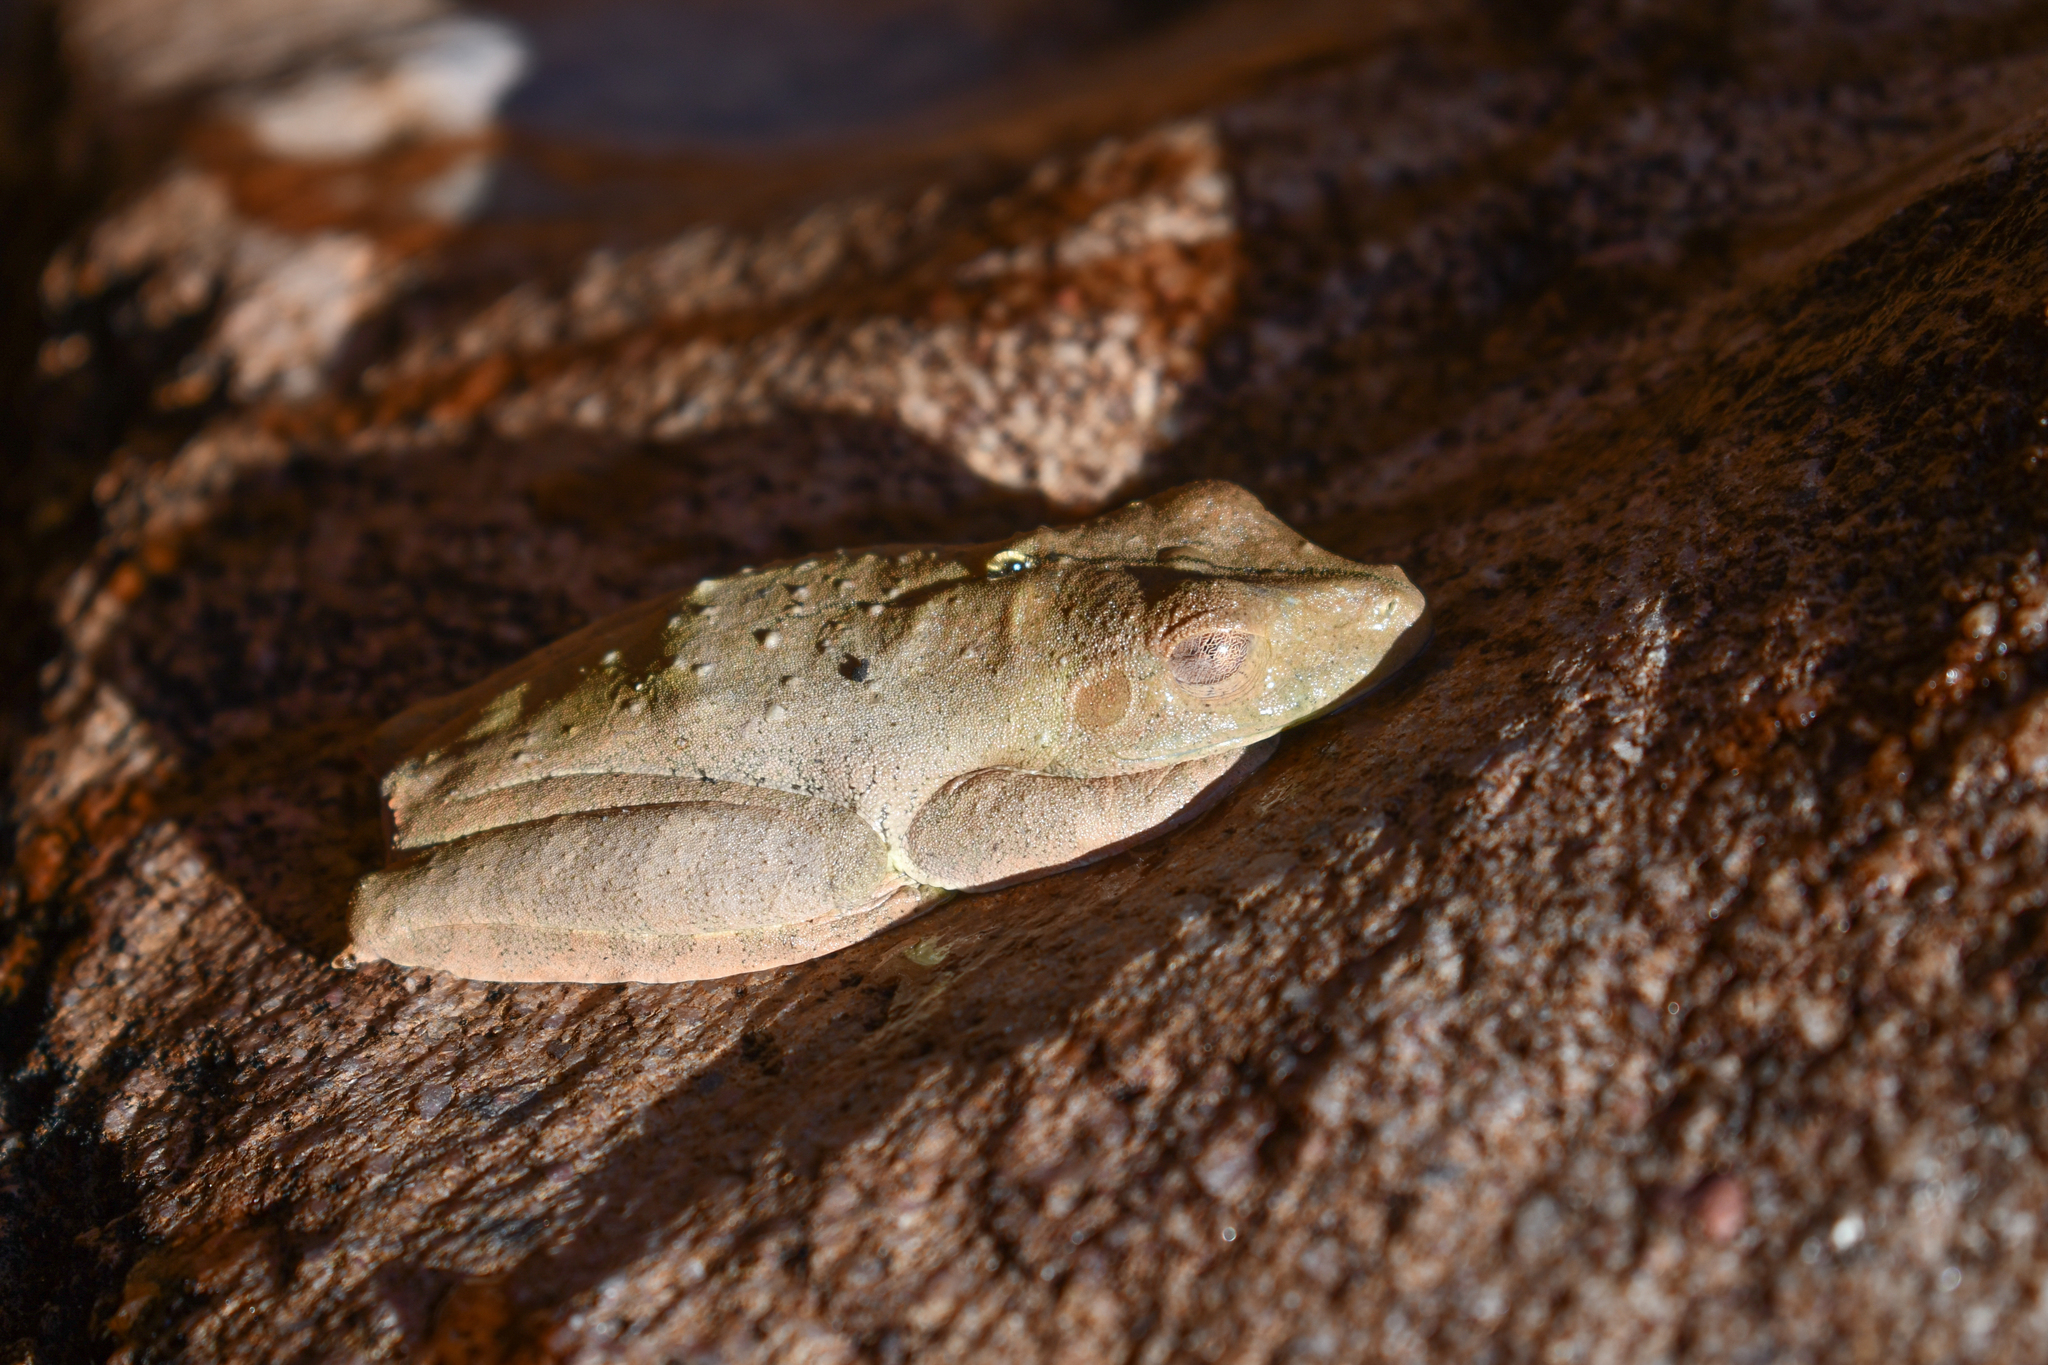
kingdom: Animalia
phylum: Chordata
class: Amphibia
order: Anura
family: Hylidae
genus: Boana
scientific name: Boana boans
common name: Giant gladiator treefrog
